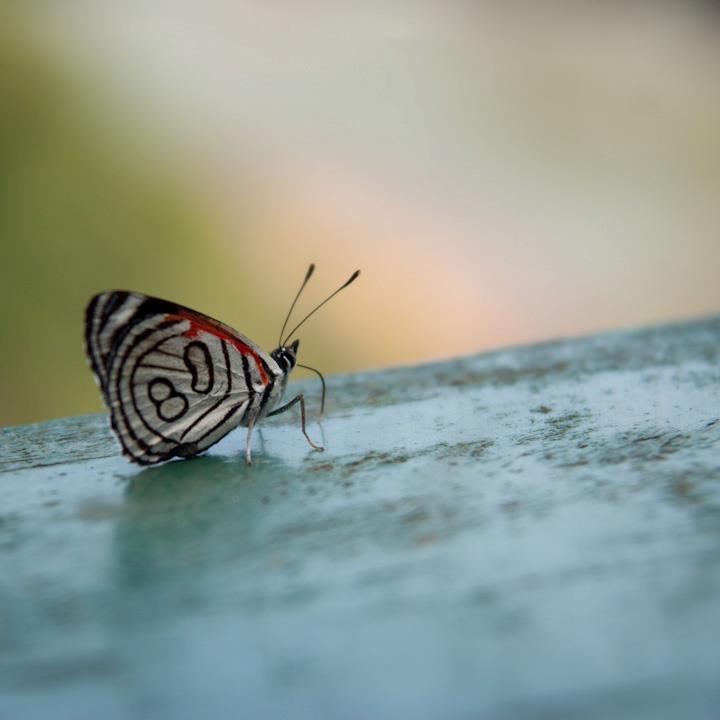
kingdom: Animalia
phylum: Arthropoda
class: Insecta
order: Lepidoptera
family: Nymphalidae
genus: Diaethria
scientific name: Diaethria candrena
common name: Number eighty
